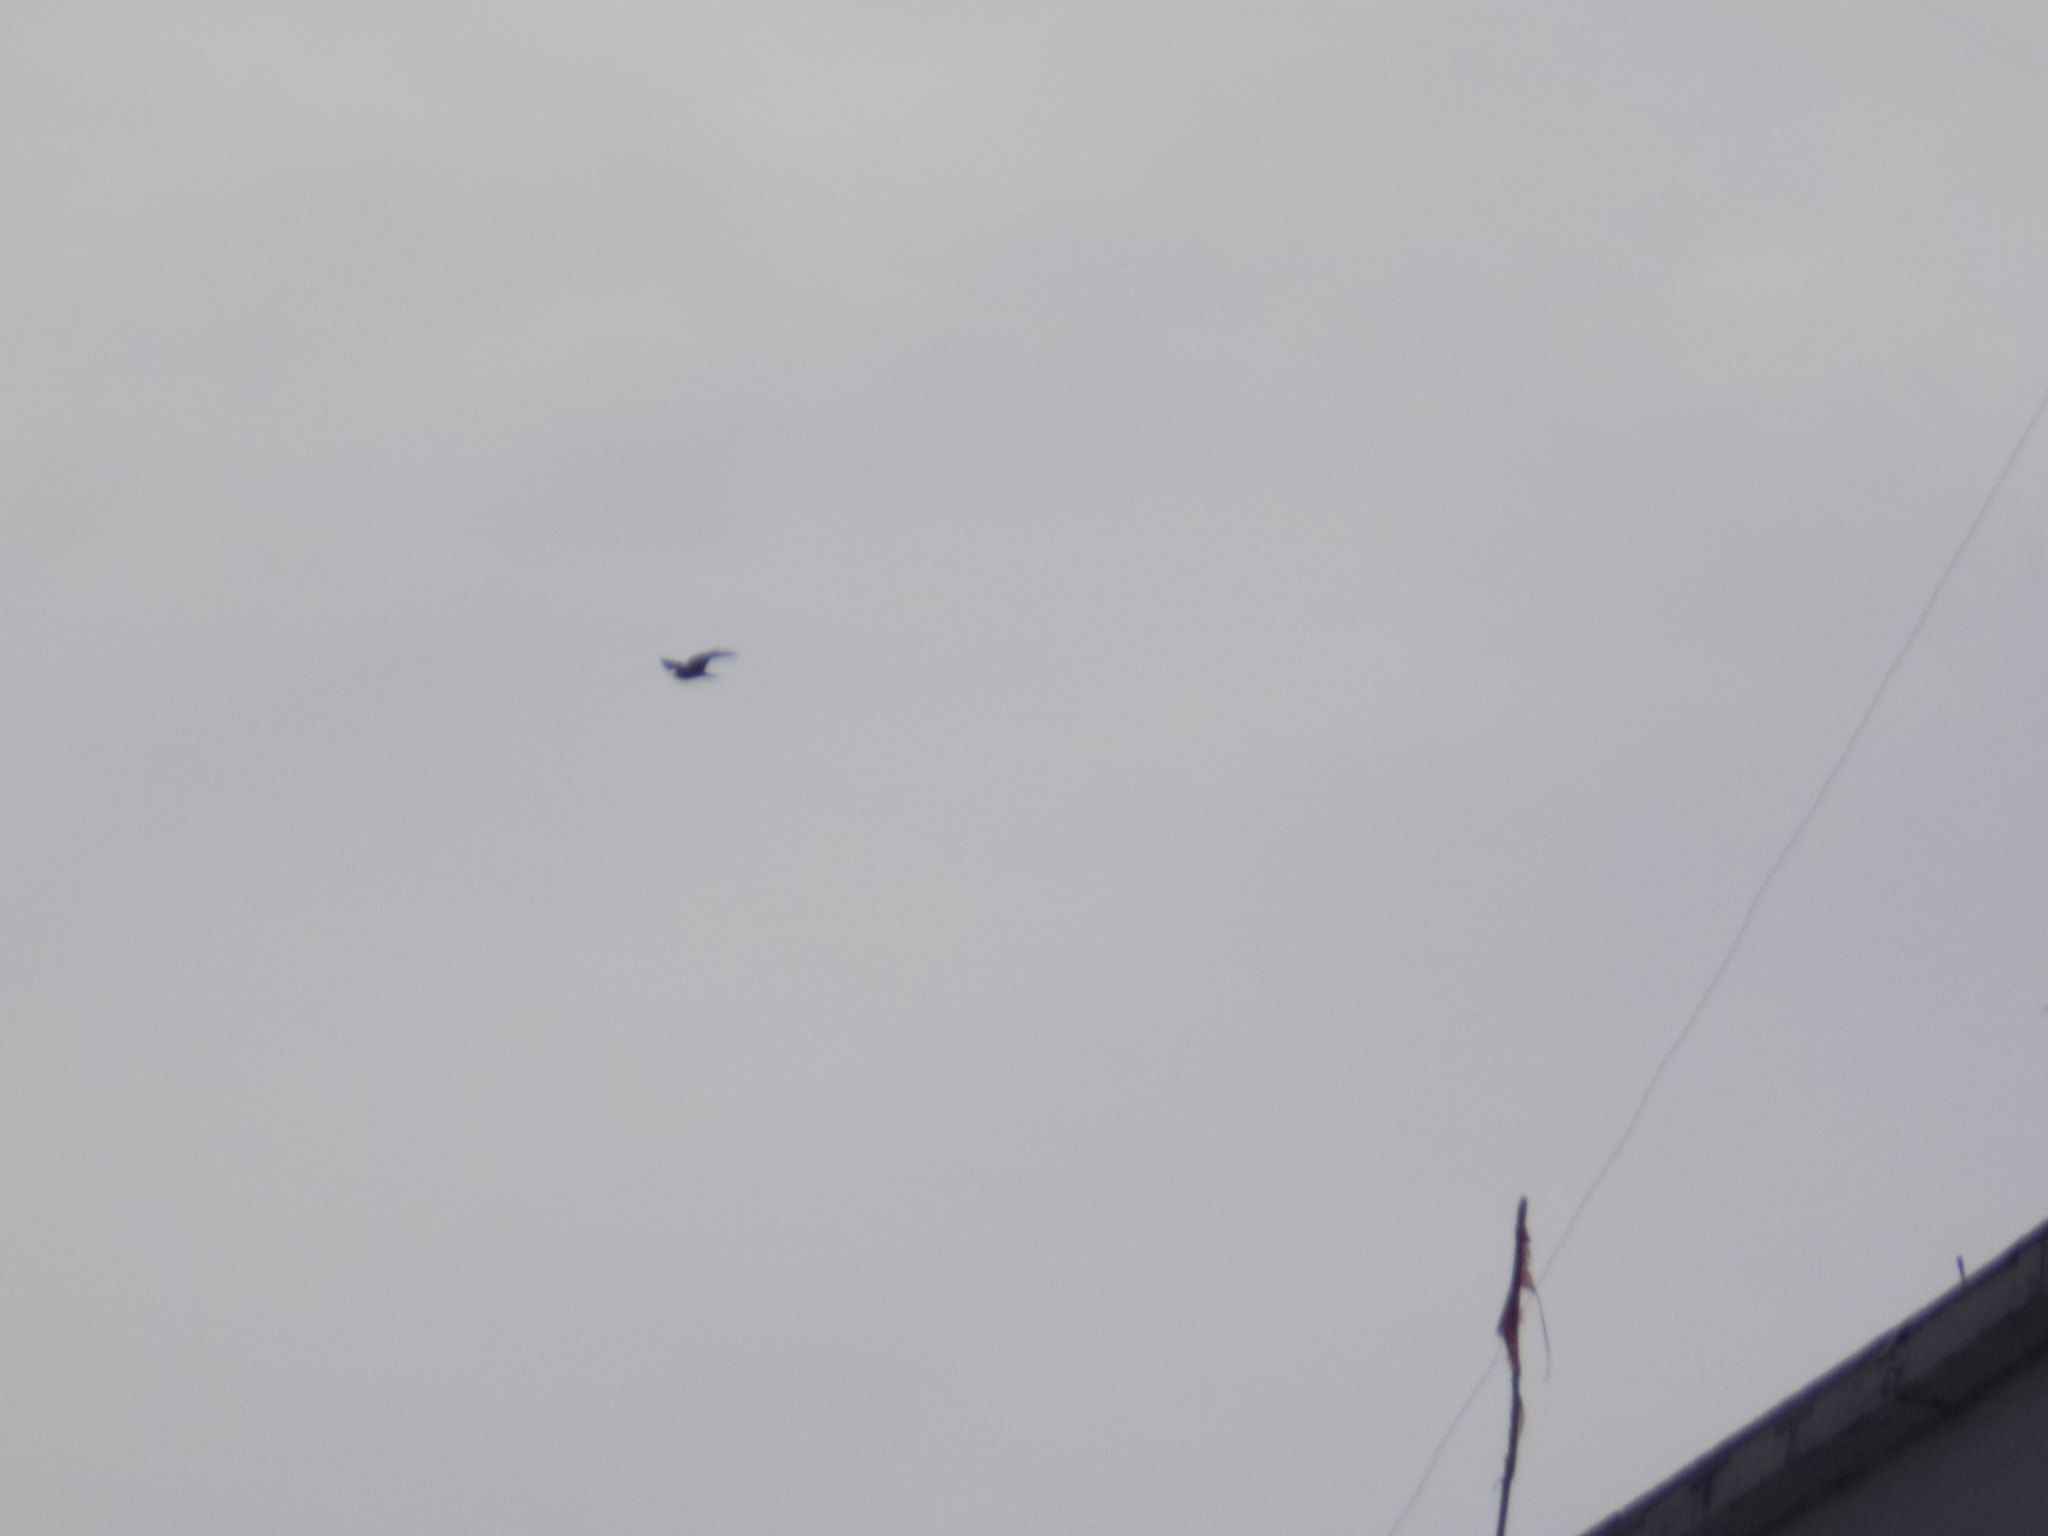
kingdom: Animalia
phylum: Chordata
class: Aves
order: Accipitriformes
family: Accipitridae
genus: Milvus
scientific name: Milvus migrans
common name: Black kite
